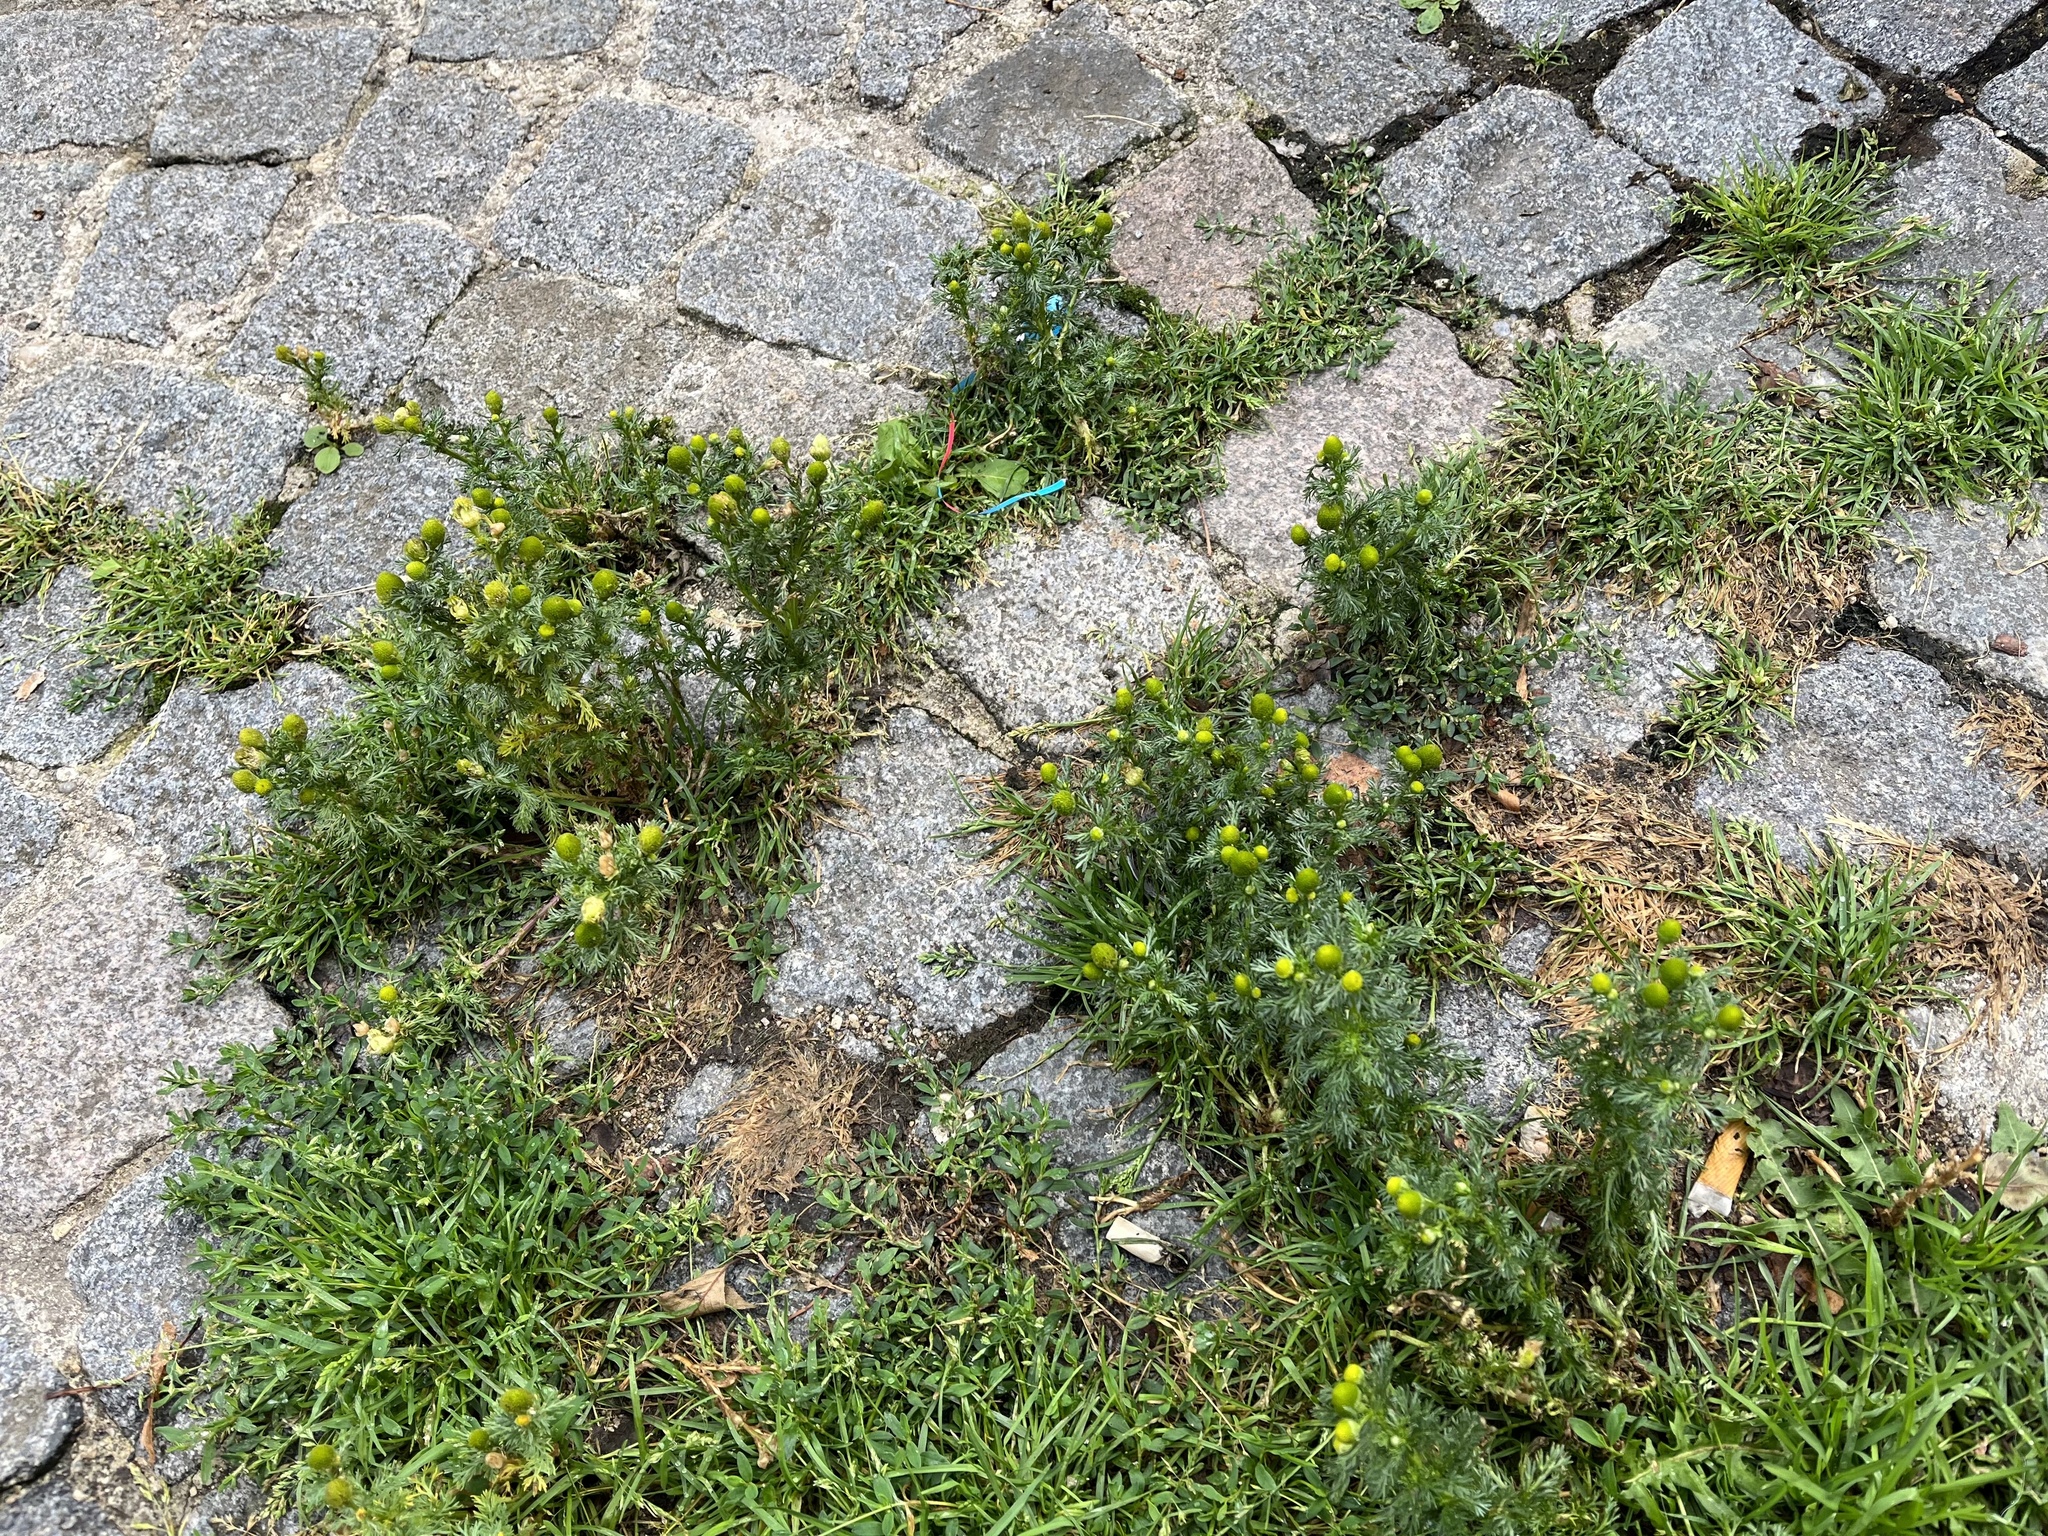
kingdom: Plantae
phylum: Tracheophyta
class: Magnoliopsida
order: Asterales
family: Asteraceae
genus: Matricaria
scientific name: Matricaria discoidea
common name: Disc mayweed
